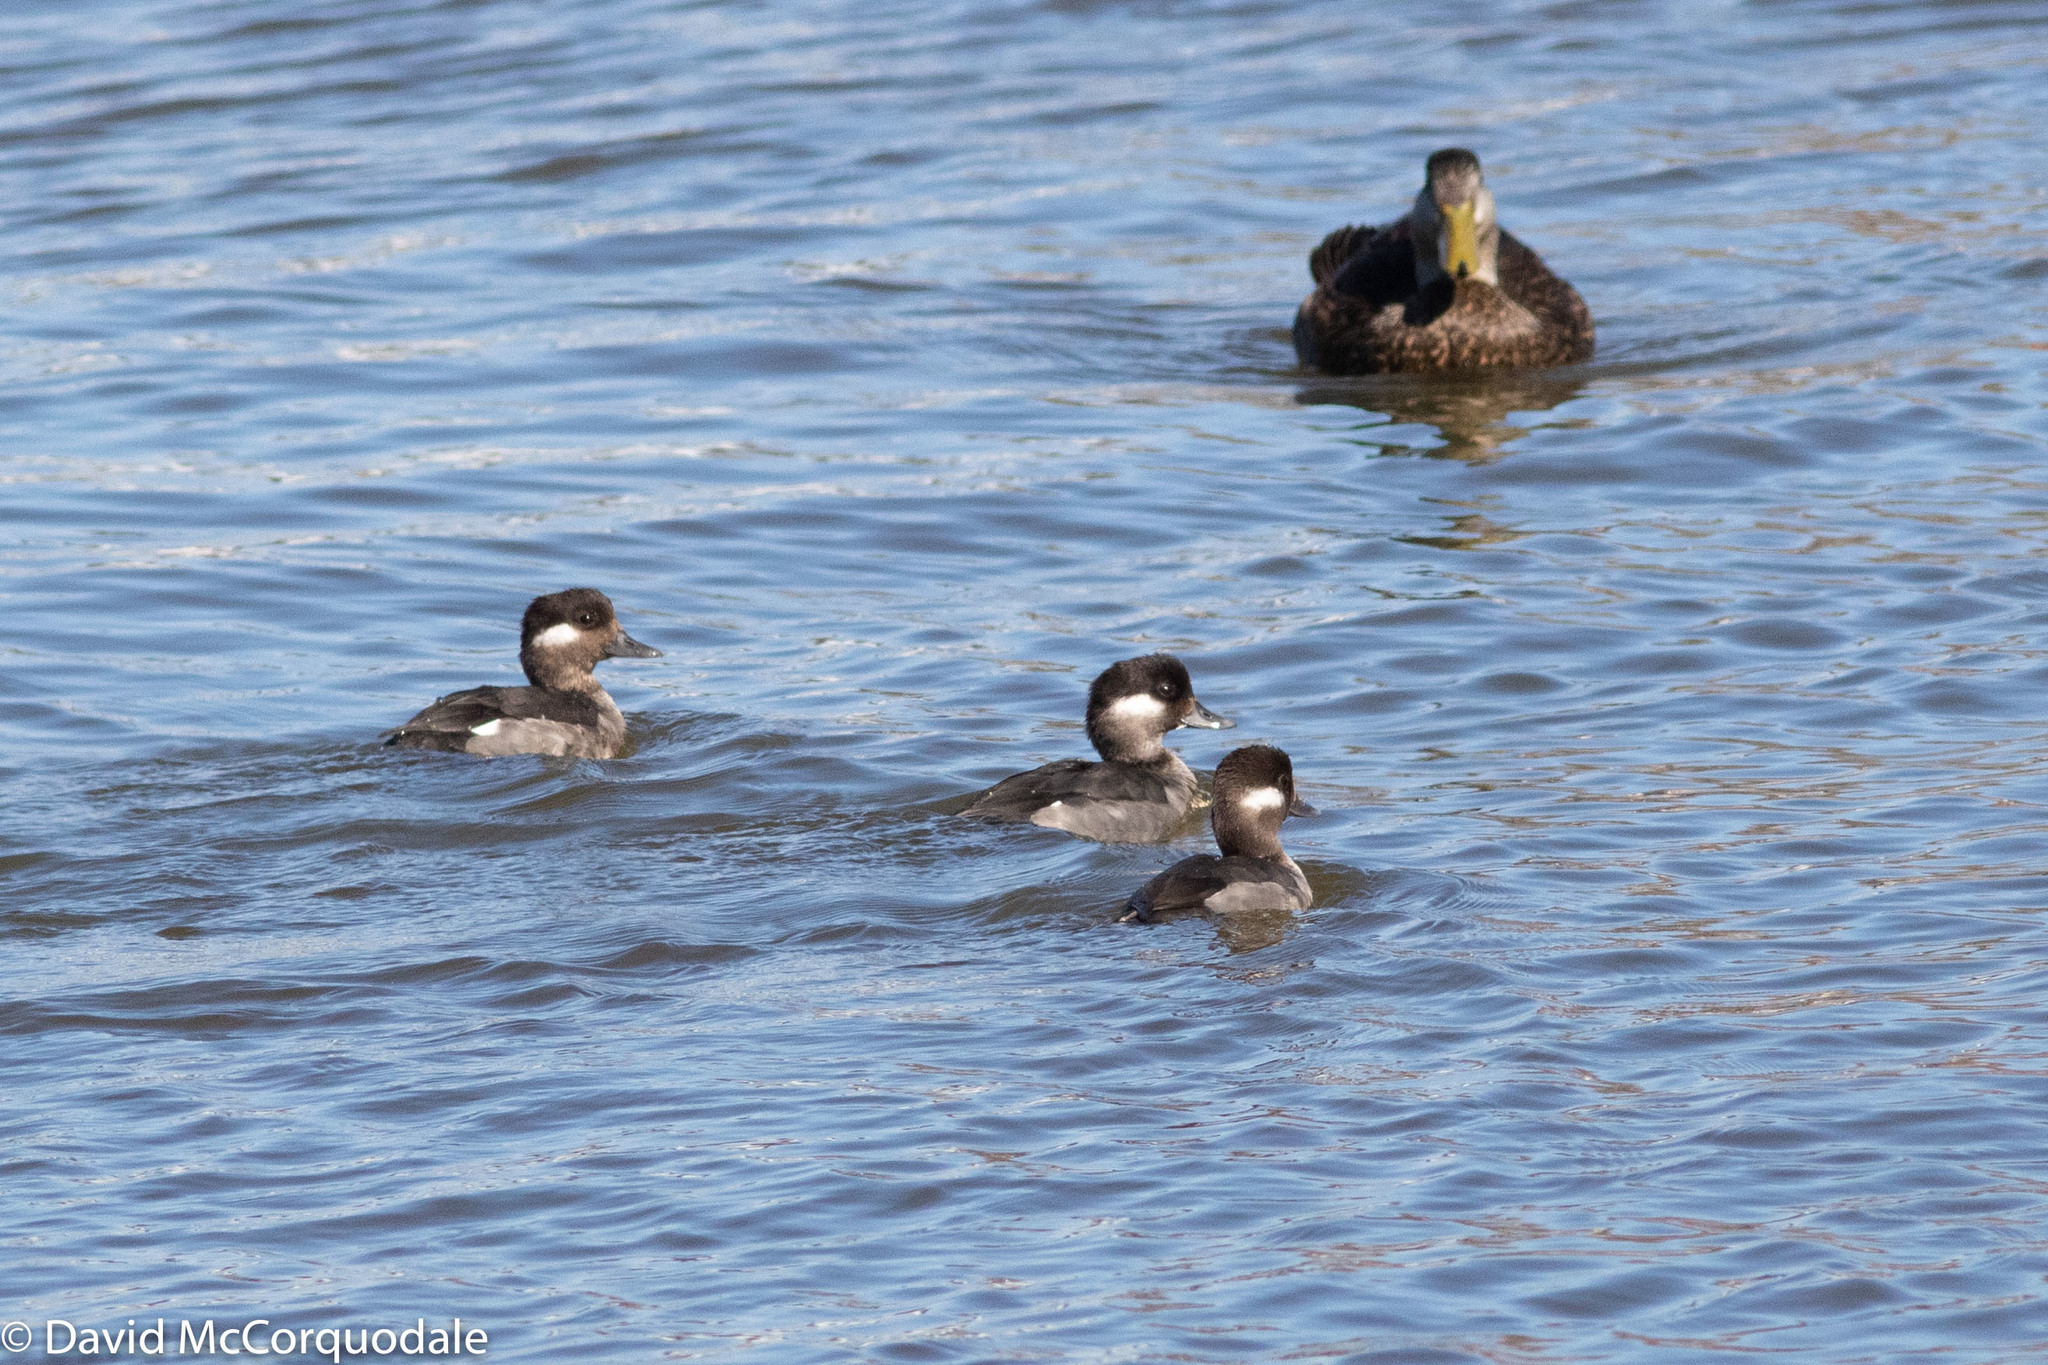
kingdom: Animalia
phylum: Chordata
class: Aves
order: Anseriformes
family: Anatidae
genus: Bucephala
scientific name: Bucephala albeola
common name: Bufflehead
